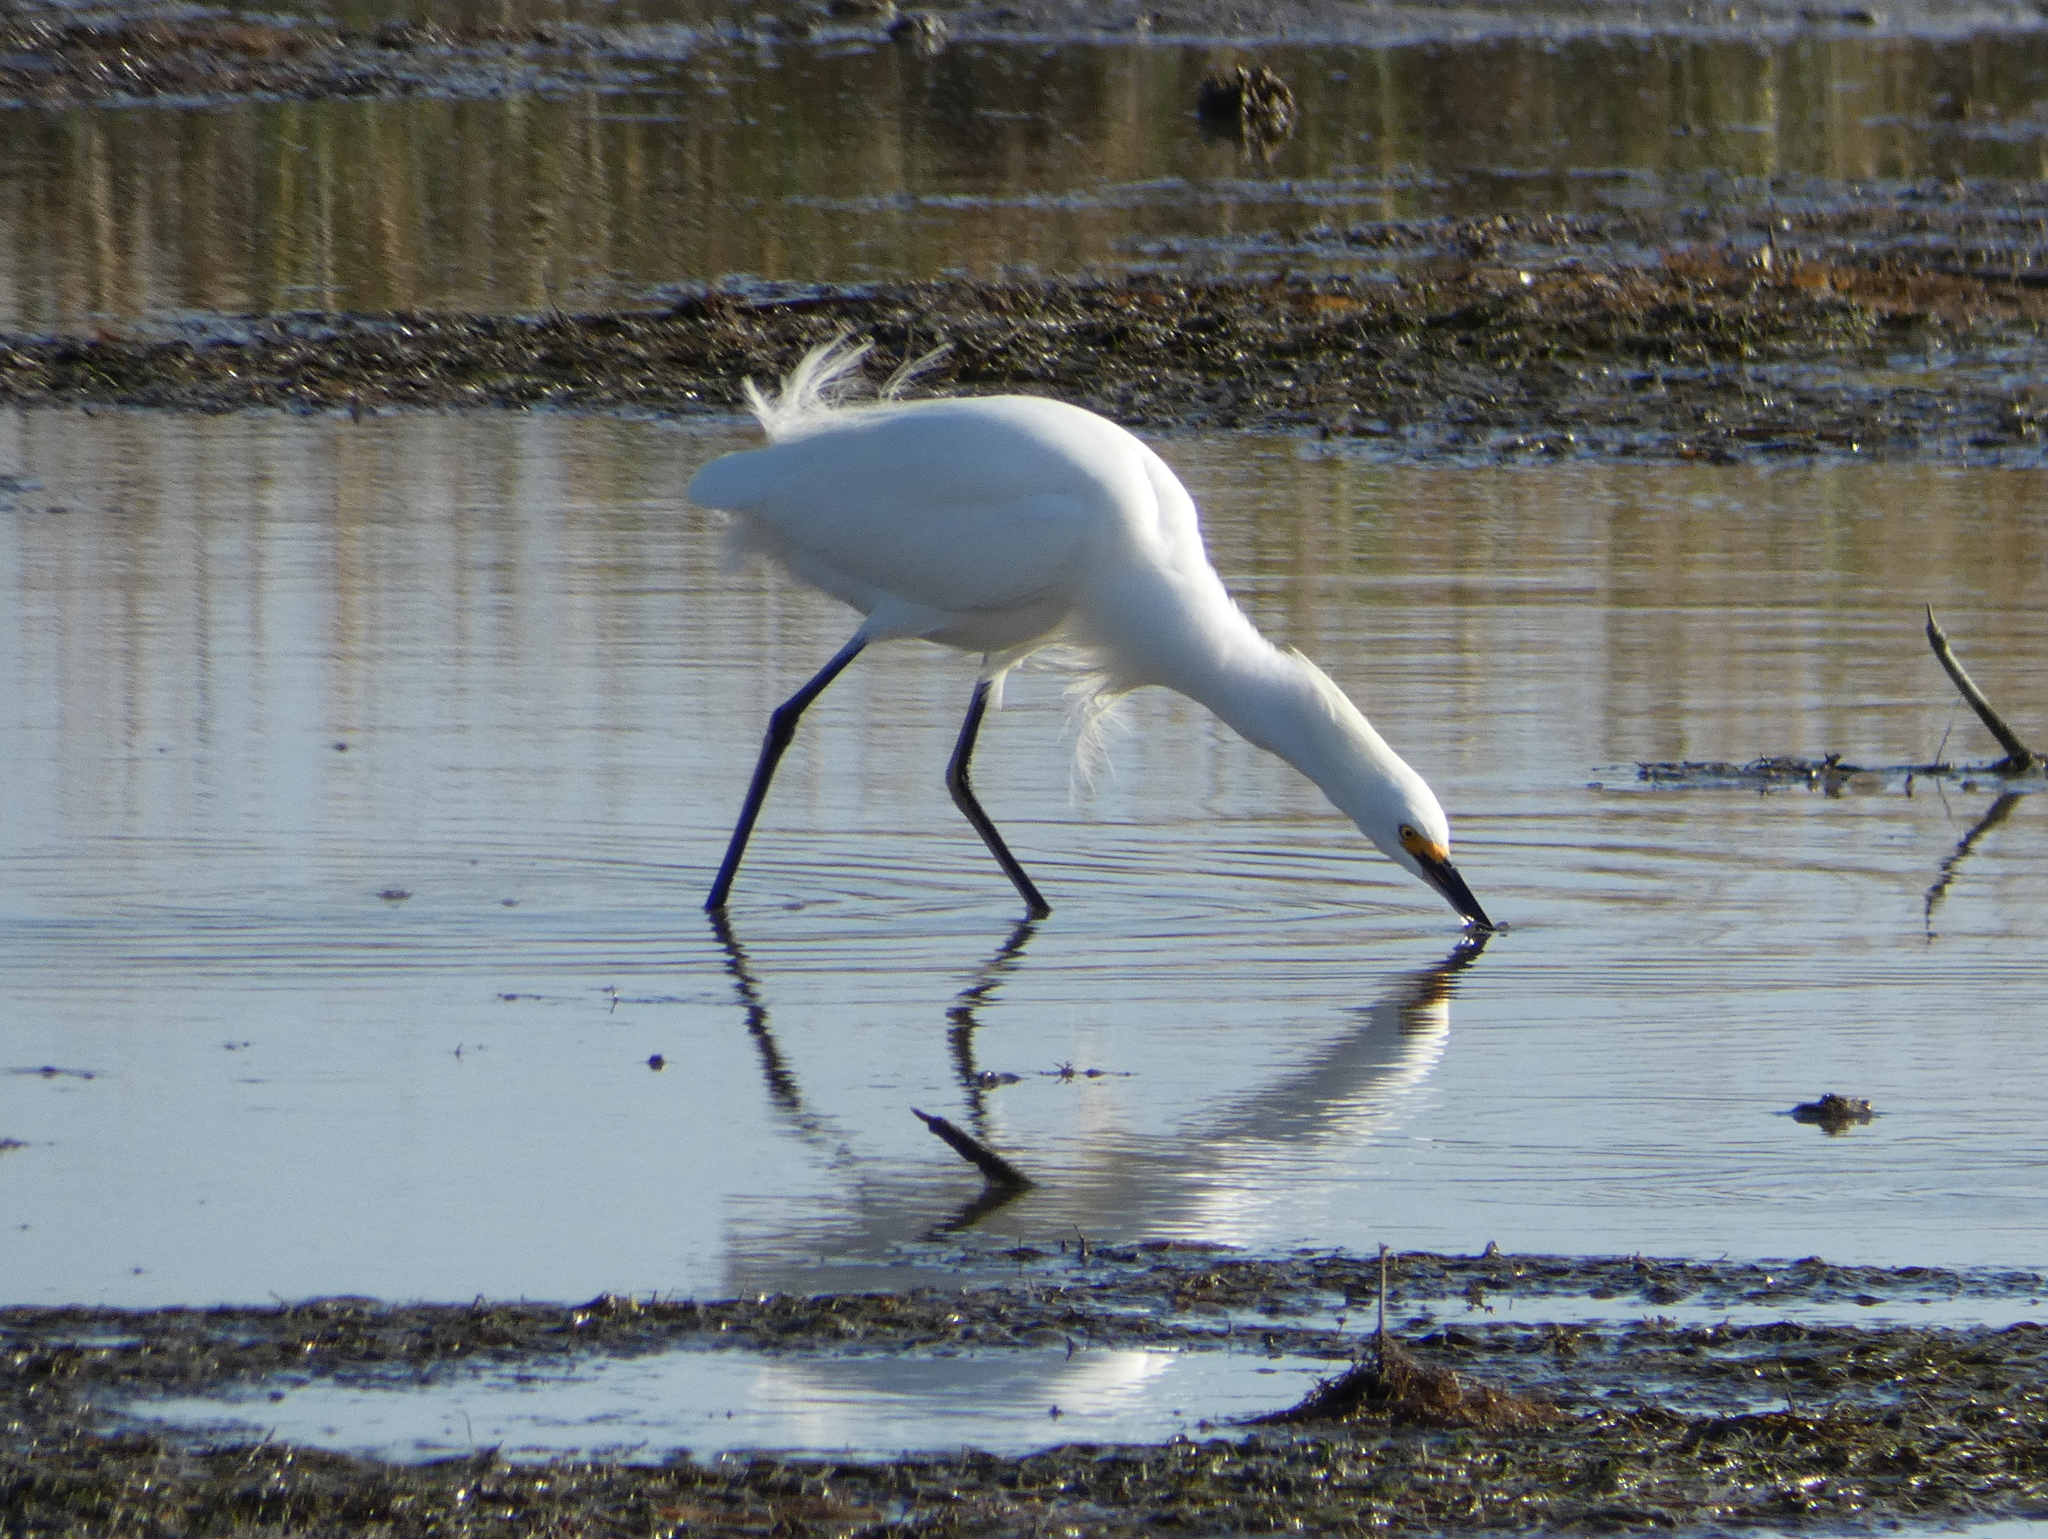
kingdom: Animalia
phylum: Chordata
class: Aves
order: Pelecaniformes
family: Ardeidae
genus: Egretta
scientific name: Egretta thula
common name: Snowy egret
